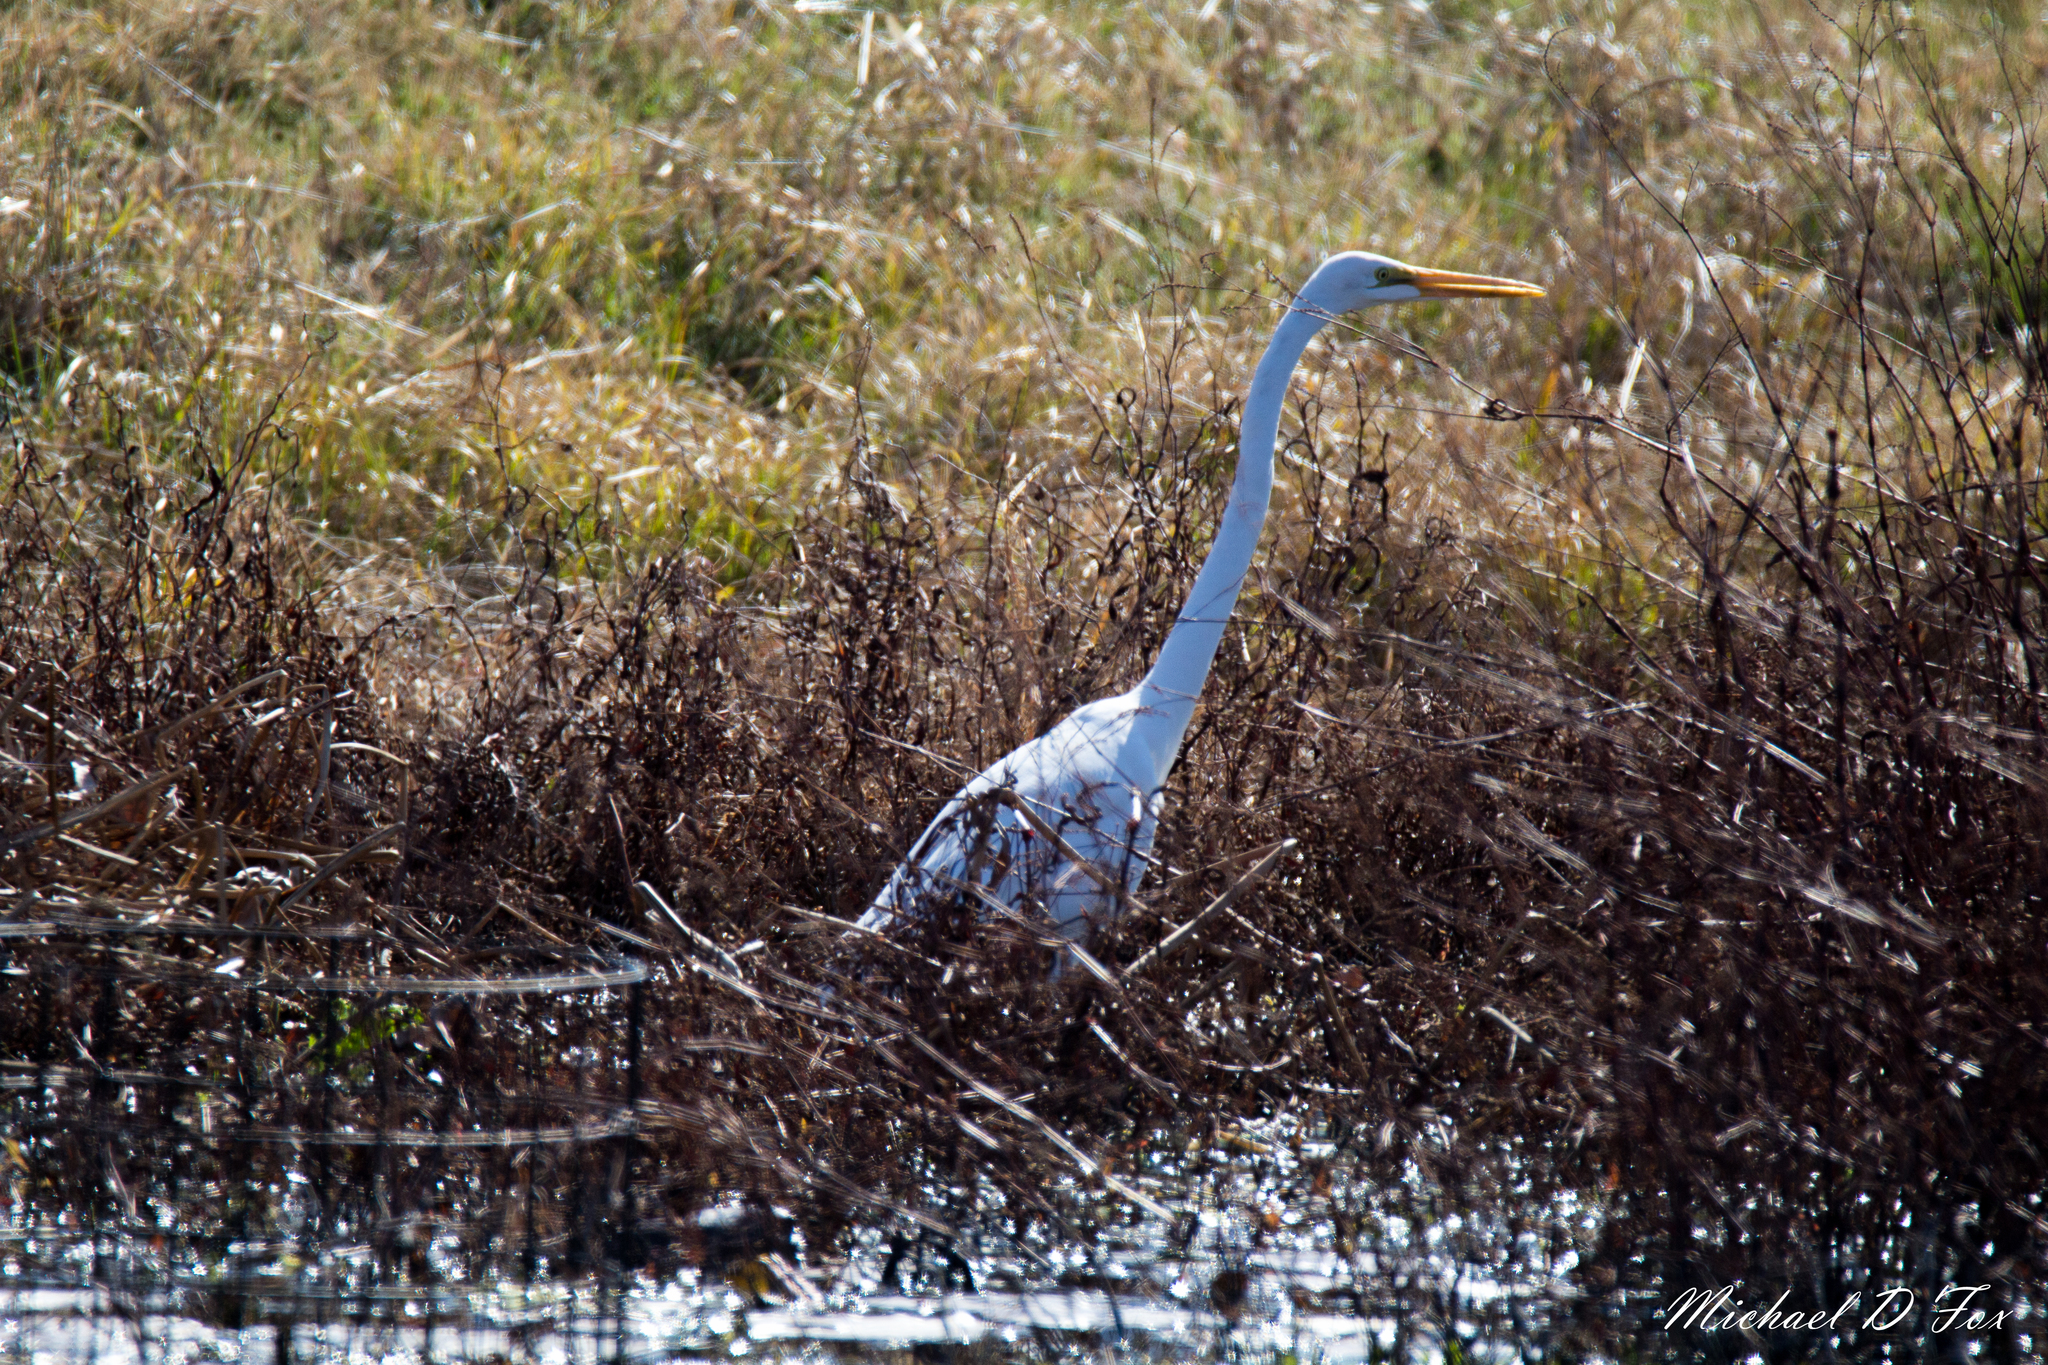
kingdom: Animalia
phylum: Chordata
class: Aves
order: Pelecaniformes
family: Ardeidae
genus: Ardea
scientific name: Ardea alba
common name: Great egret
